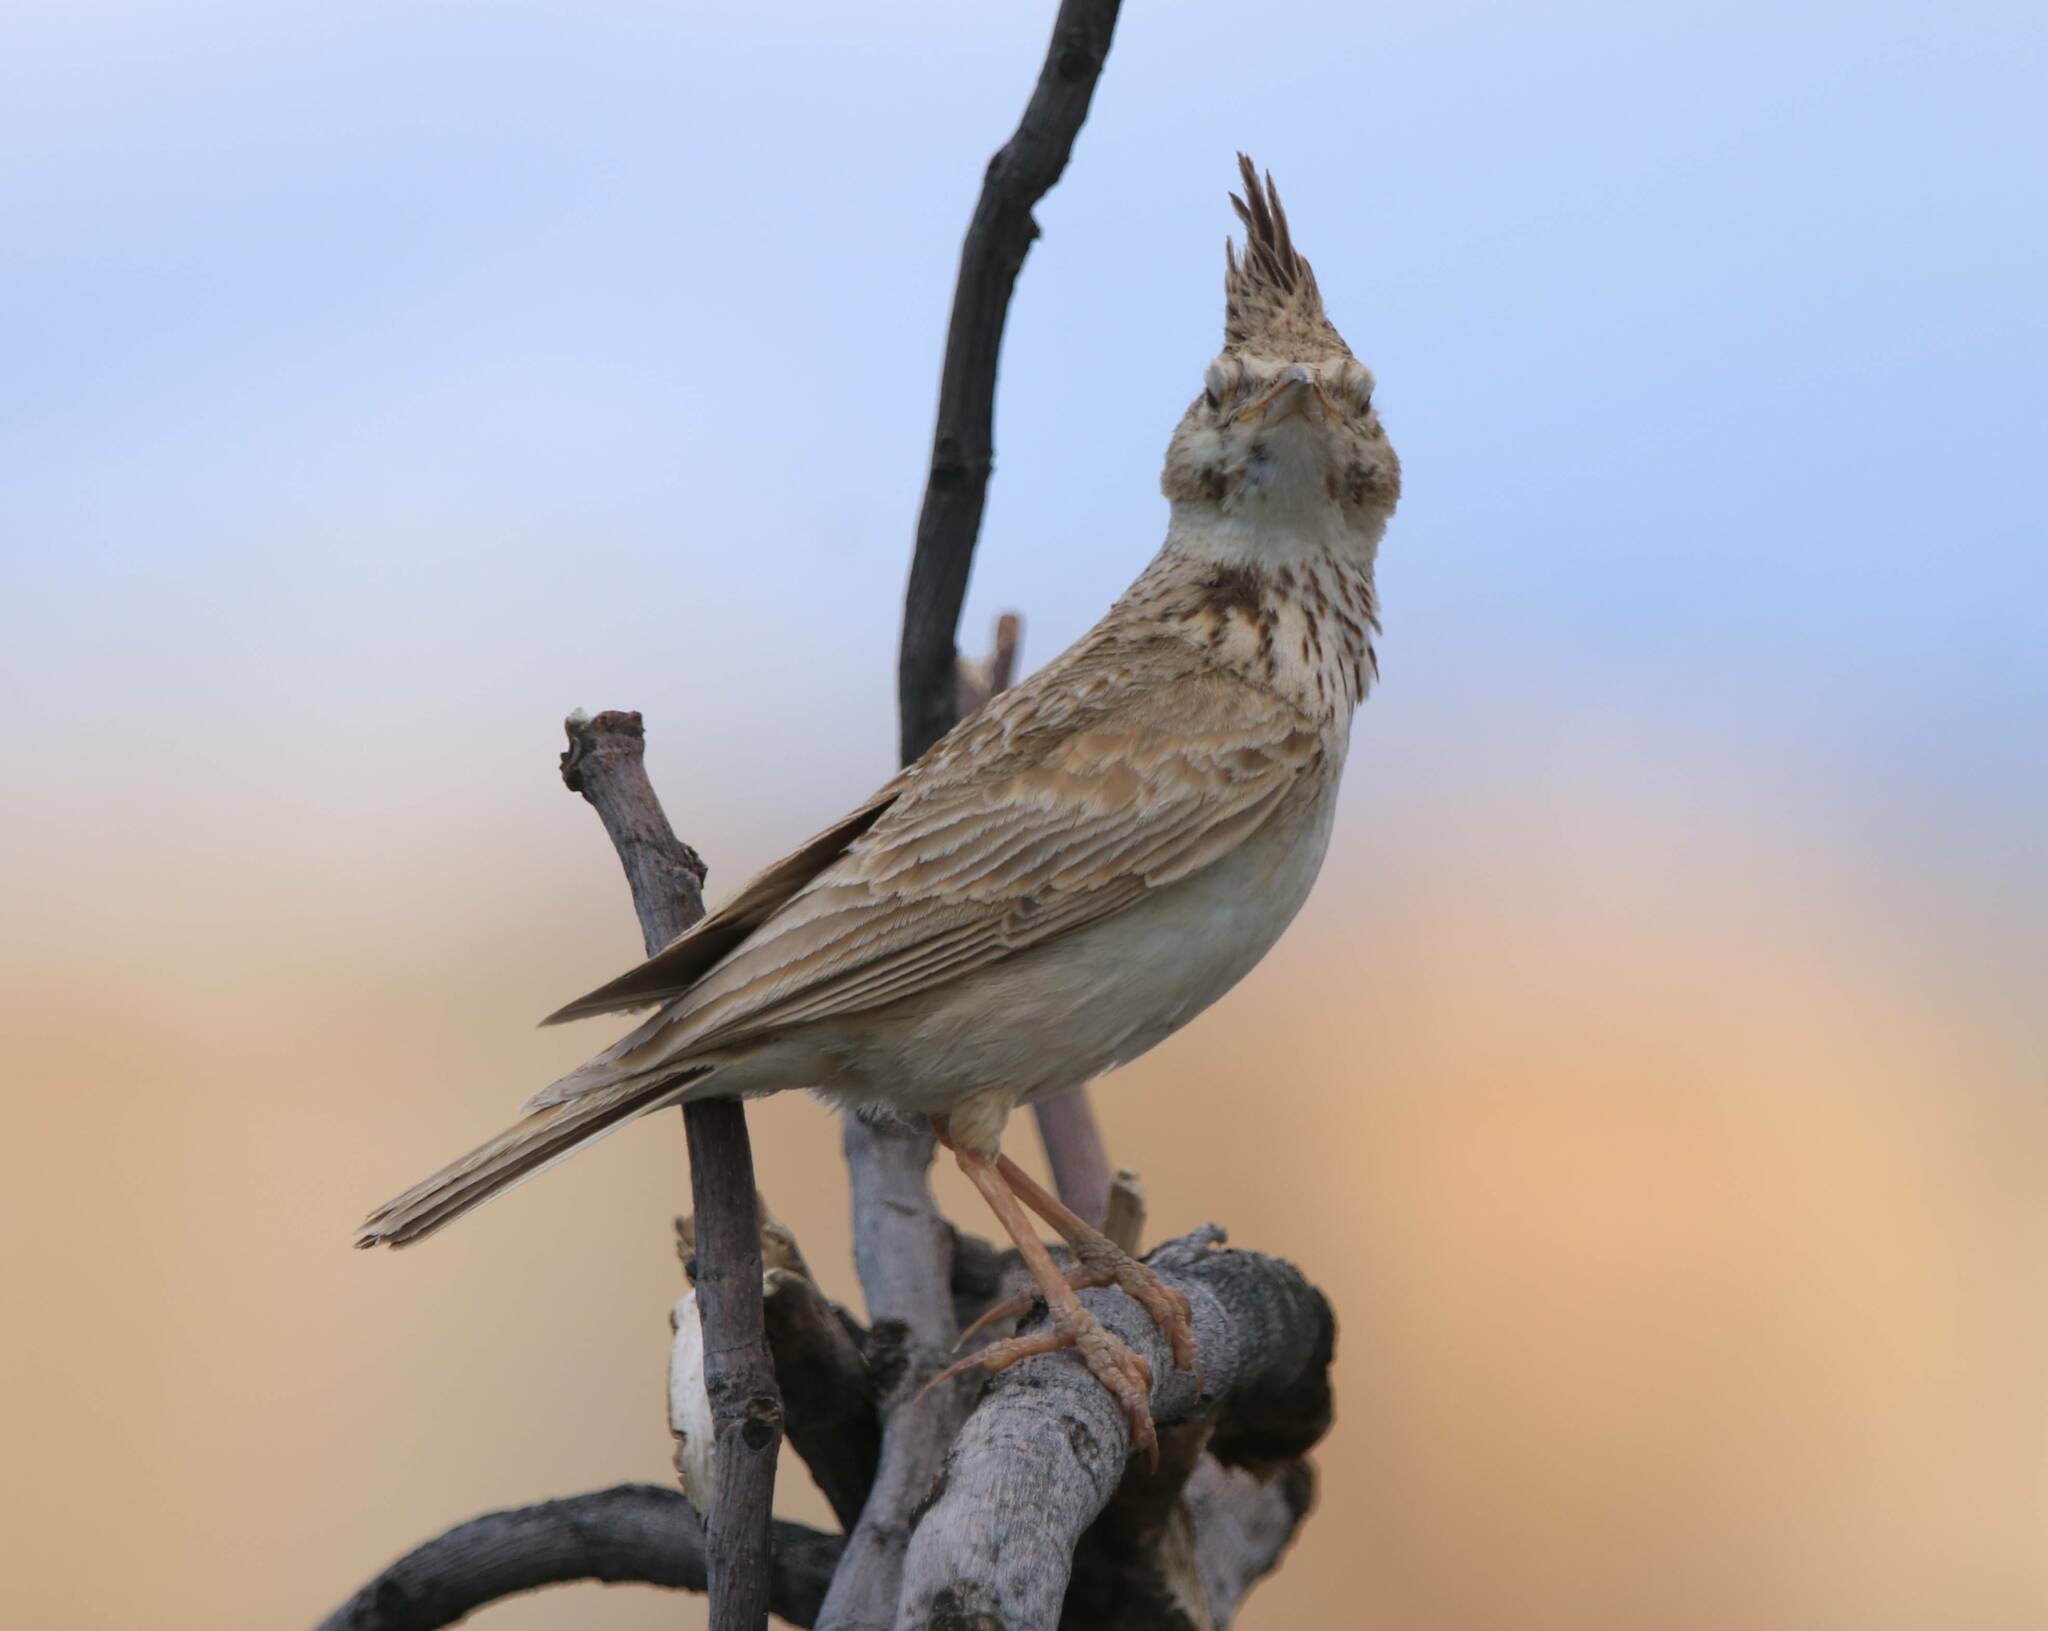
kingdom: Animalia
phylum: Chordata
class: Aves
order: Passeriformes
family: Alaudidae
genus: Galerida
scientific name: Galerida cristata
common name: Crested lark
